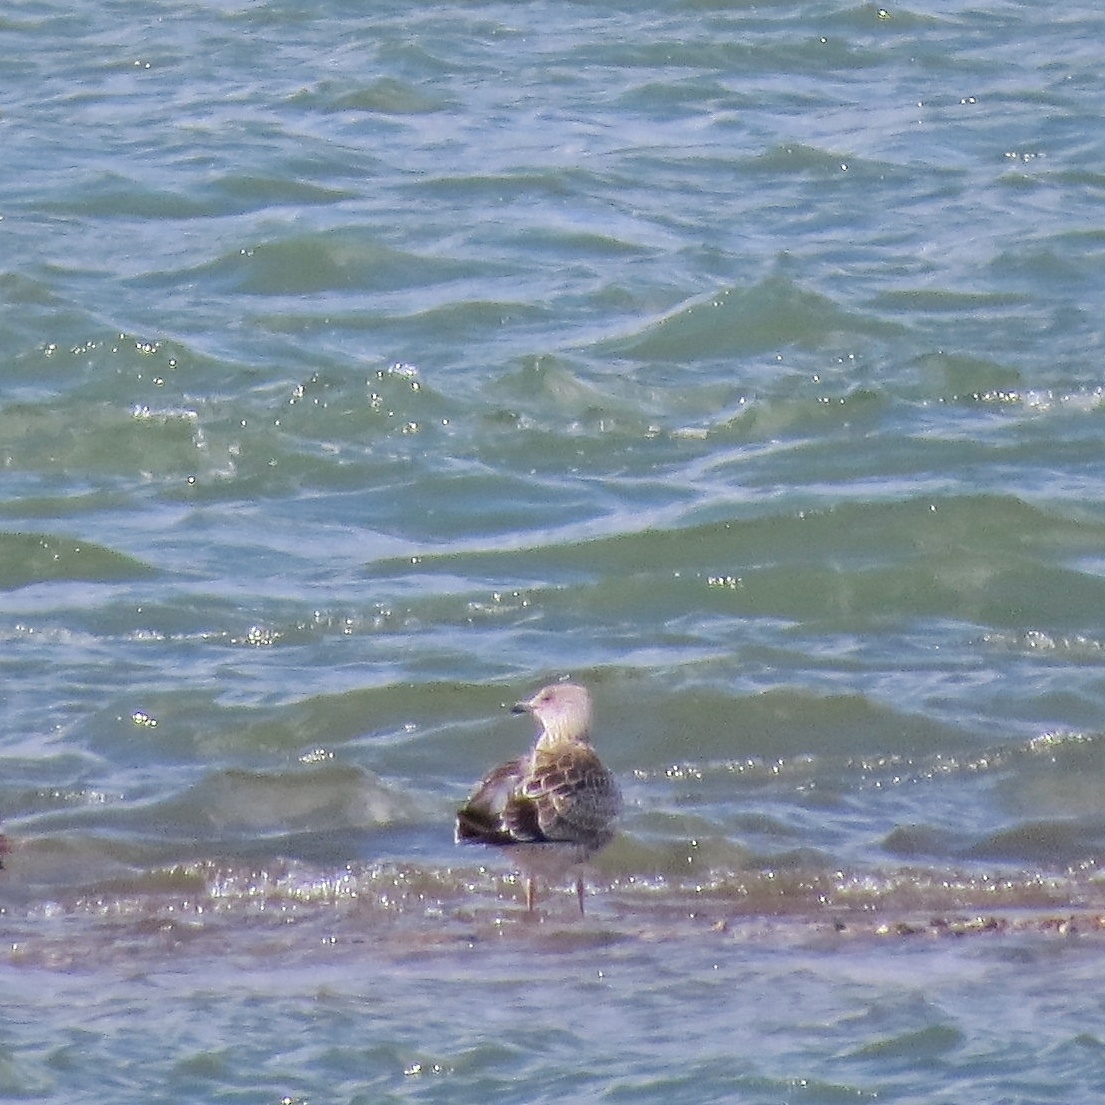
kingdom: Animalia
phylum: Chordata
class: Aves
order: Charadriiformes
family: Laridae
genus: Larus
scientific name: Larus fuscus
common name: Lesser black-backed gull
